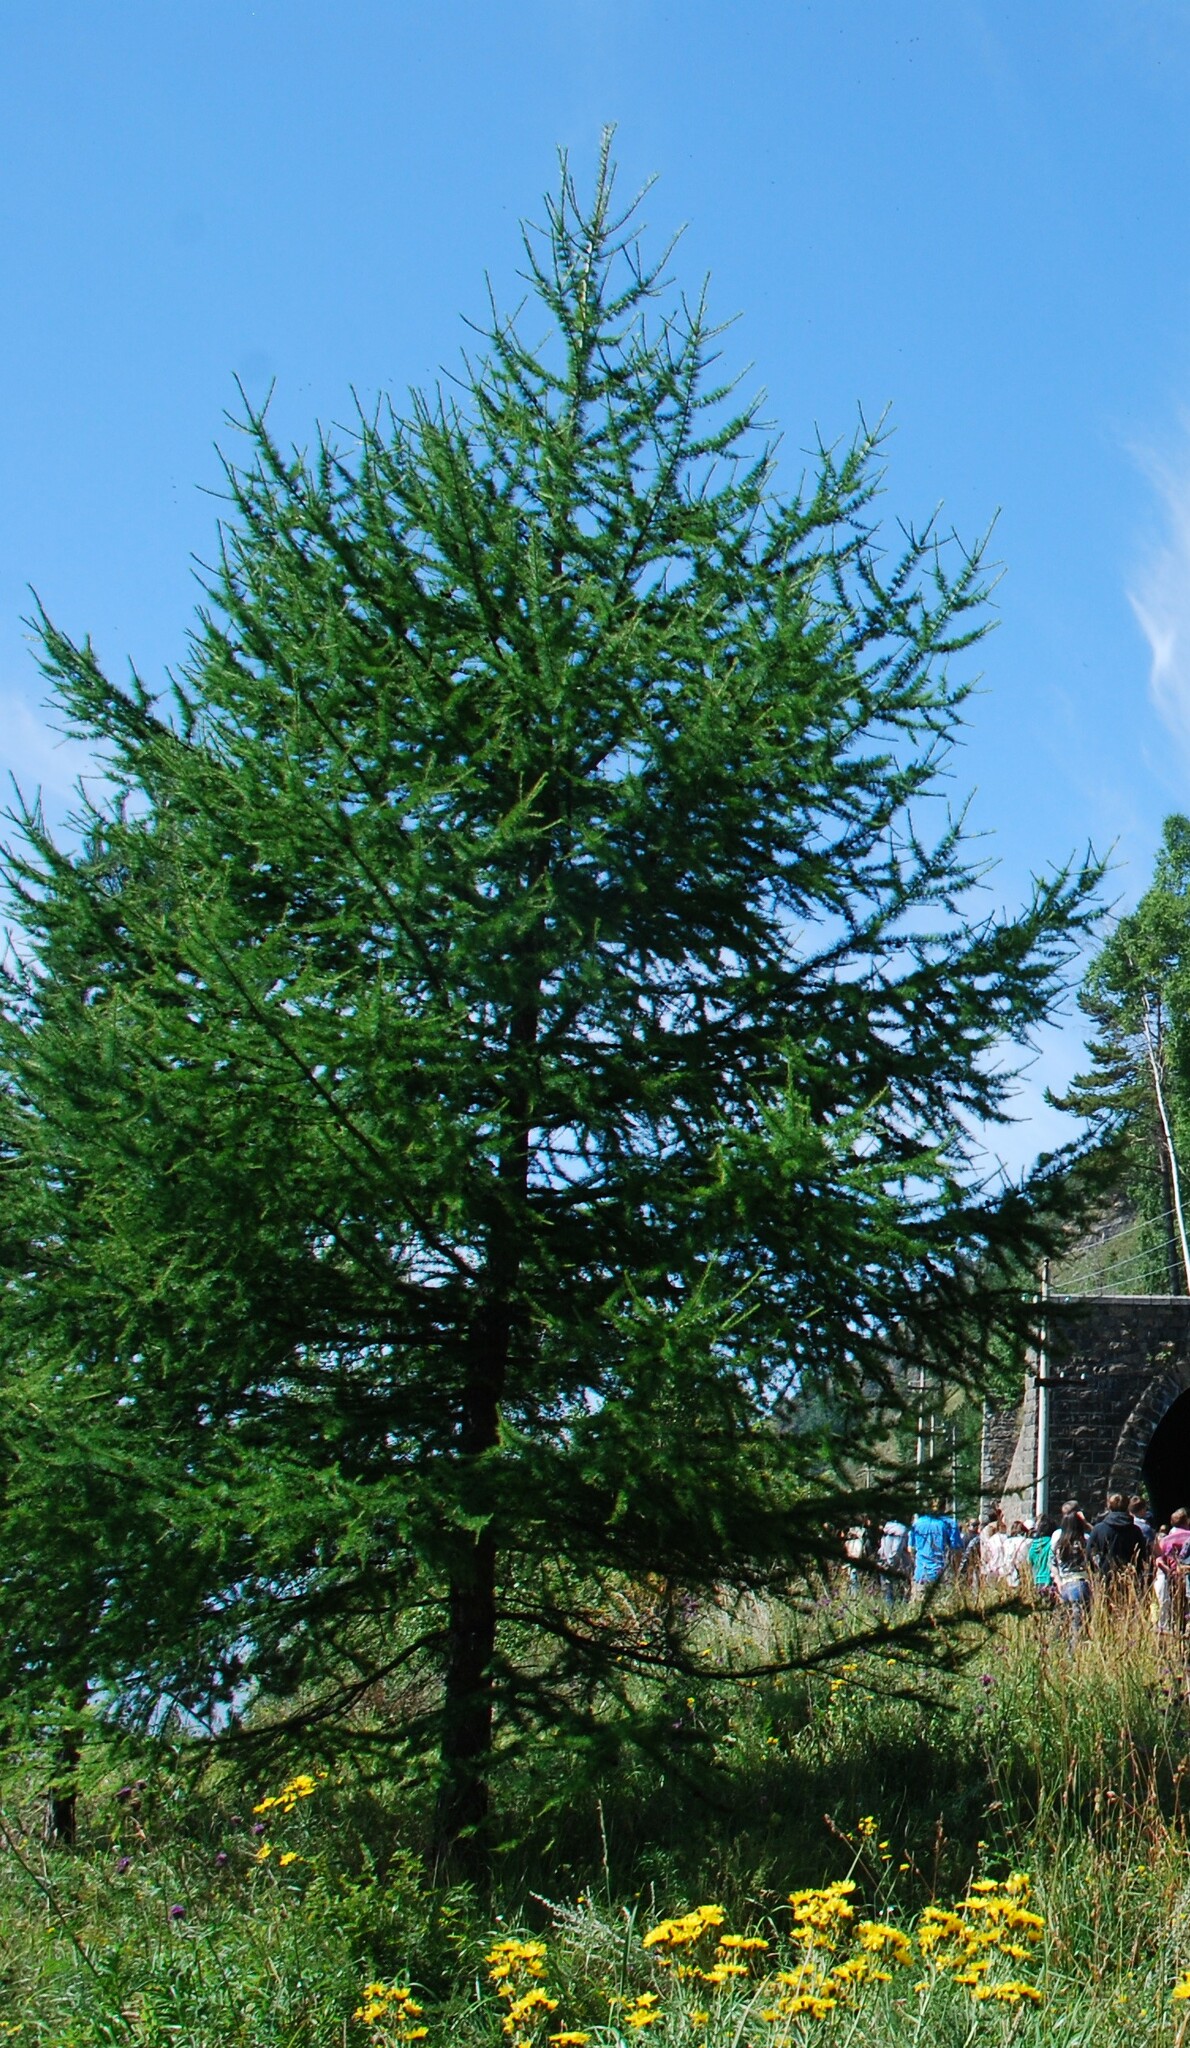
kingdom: Plantae
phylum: Tracheophyta
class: Pinopsida
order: Pinales
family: Pinaceae
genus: Larix
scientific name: Larix sibirica
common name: Siberian larch
